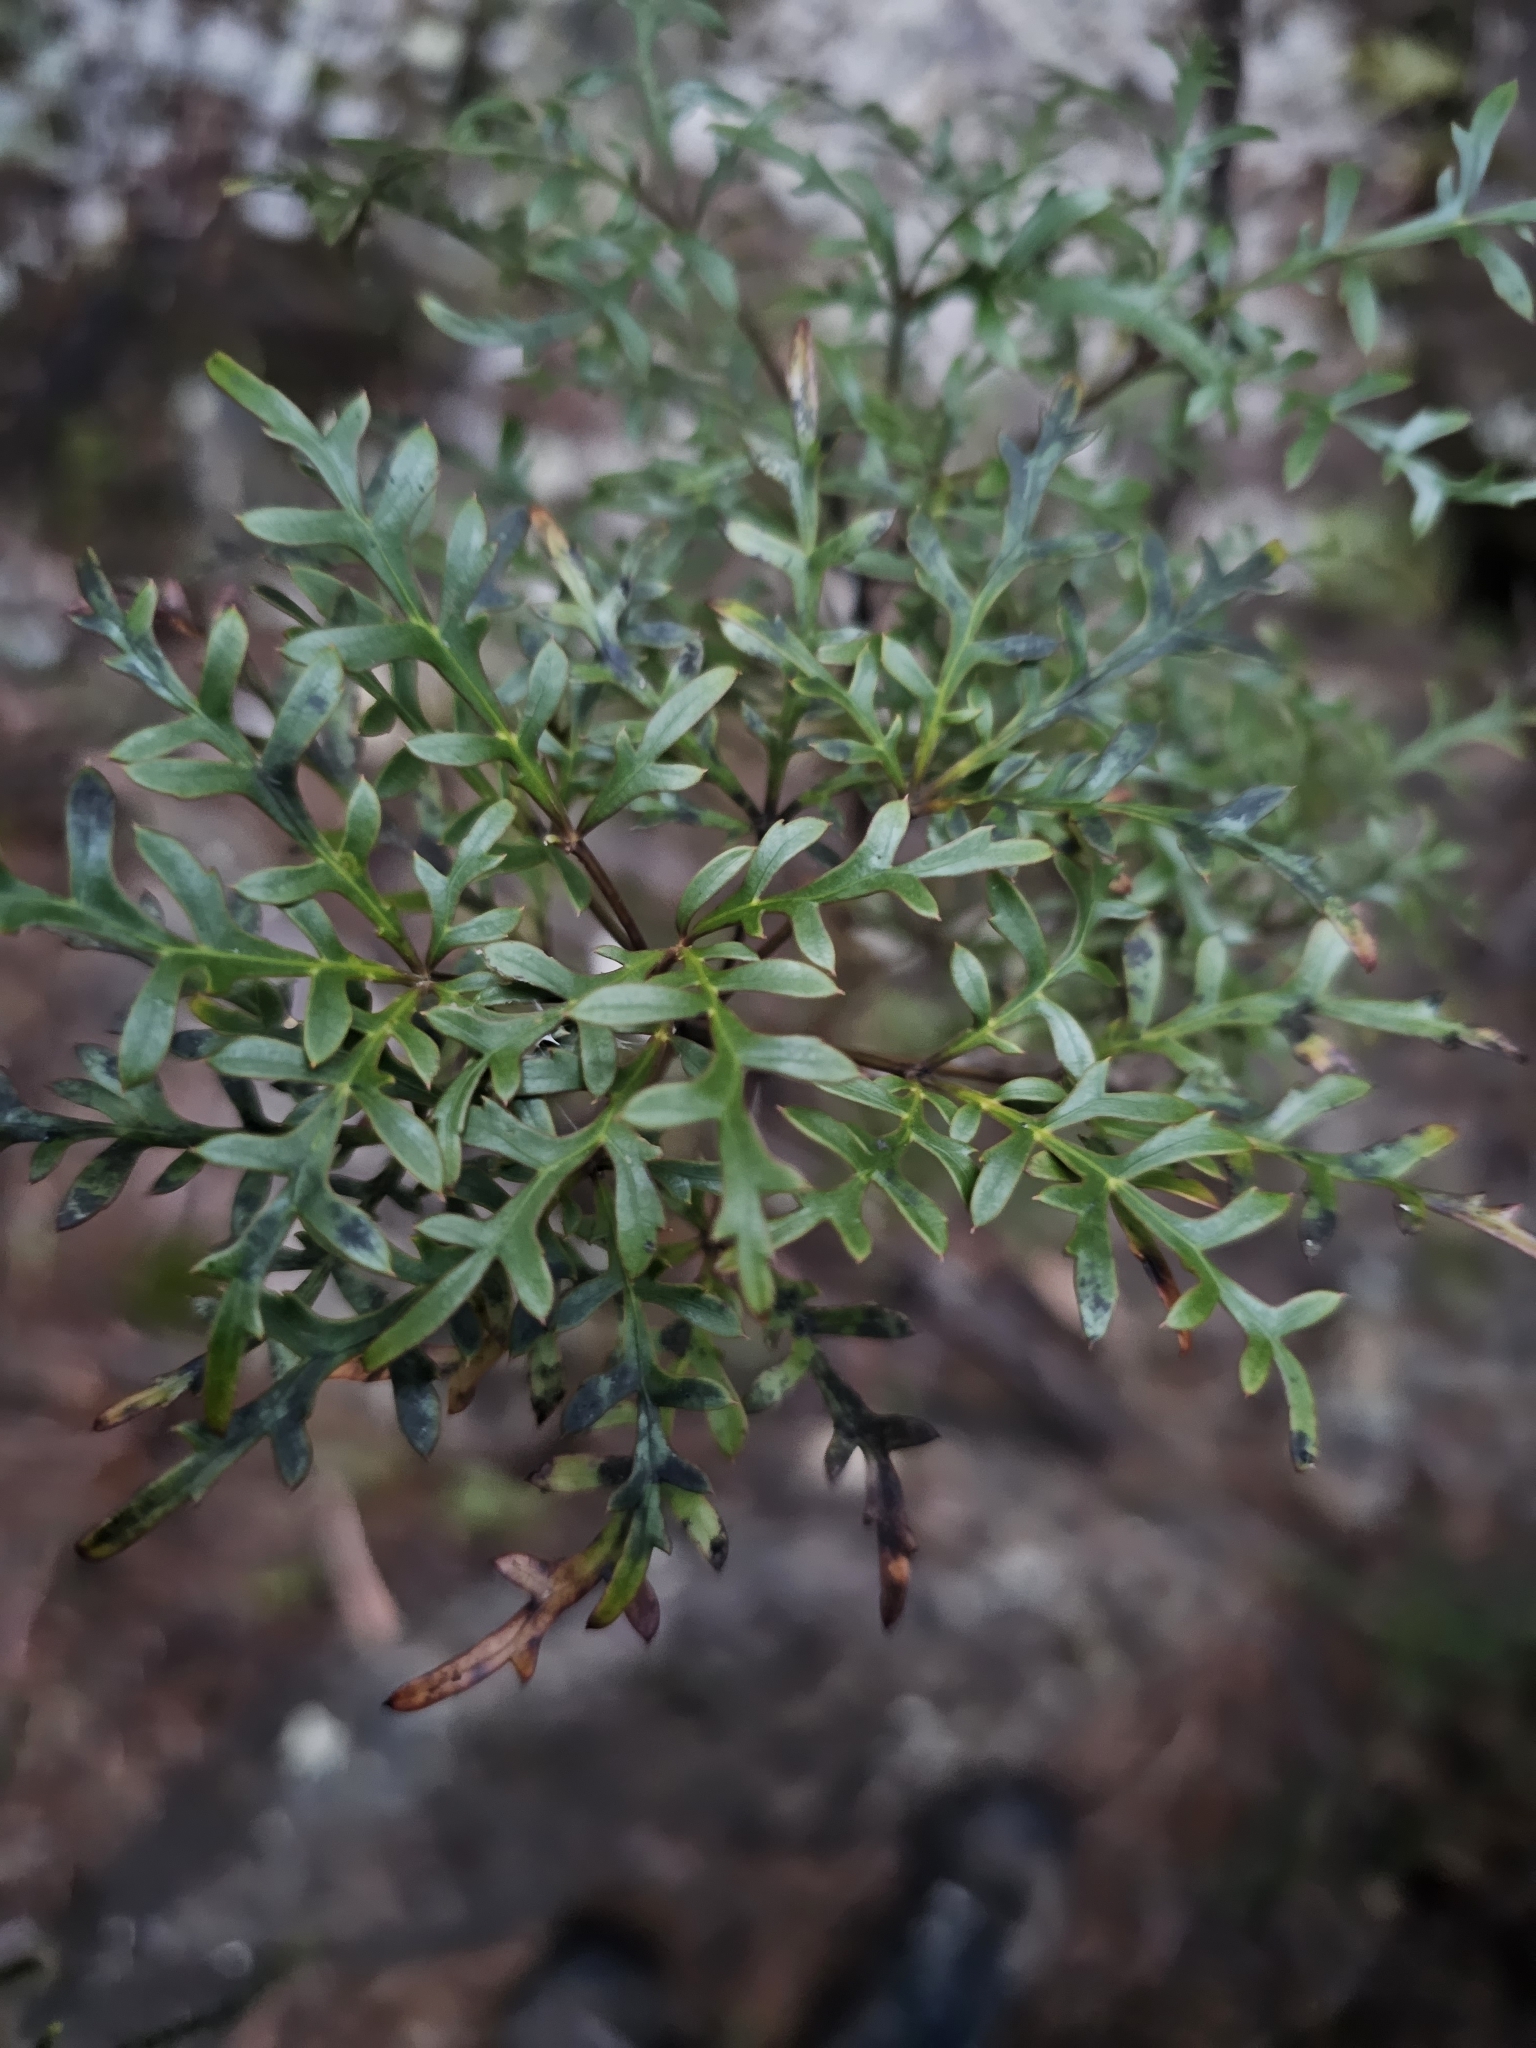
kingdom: Plantae
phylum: Tracheophyta
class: Magnoliopsida
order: Apiales
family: Araliaceae
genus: Raukaua
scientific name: Raukaua simplex
